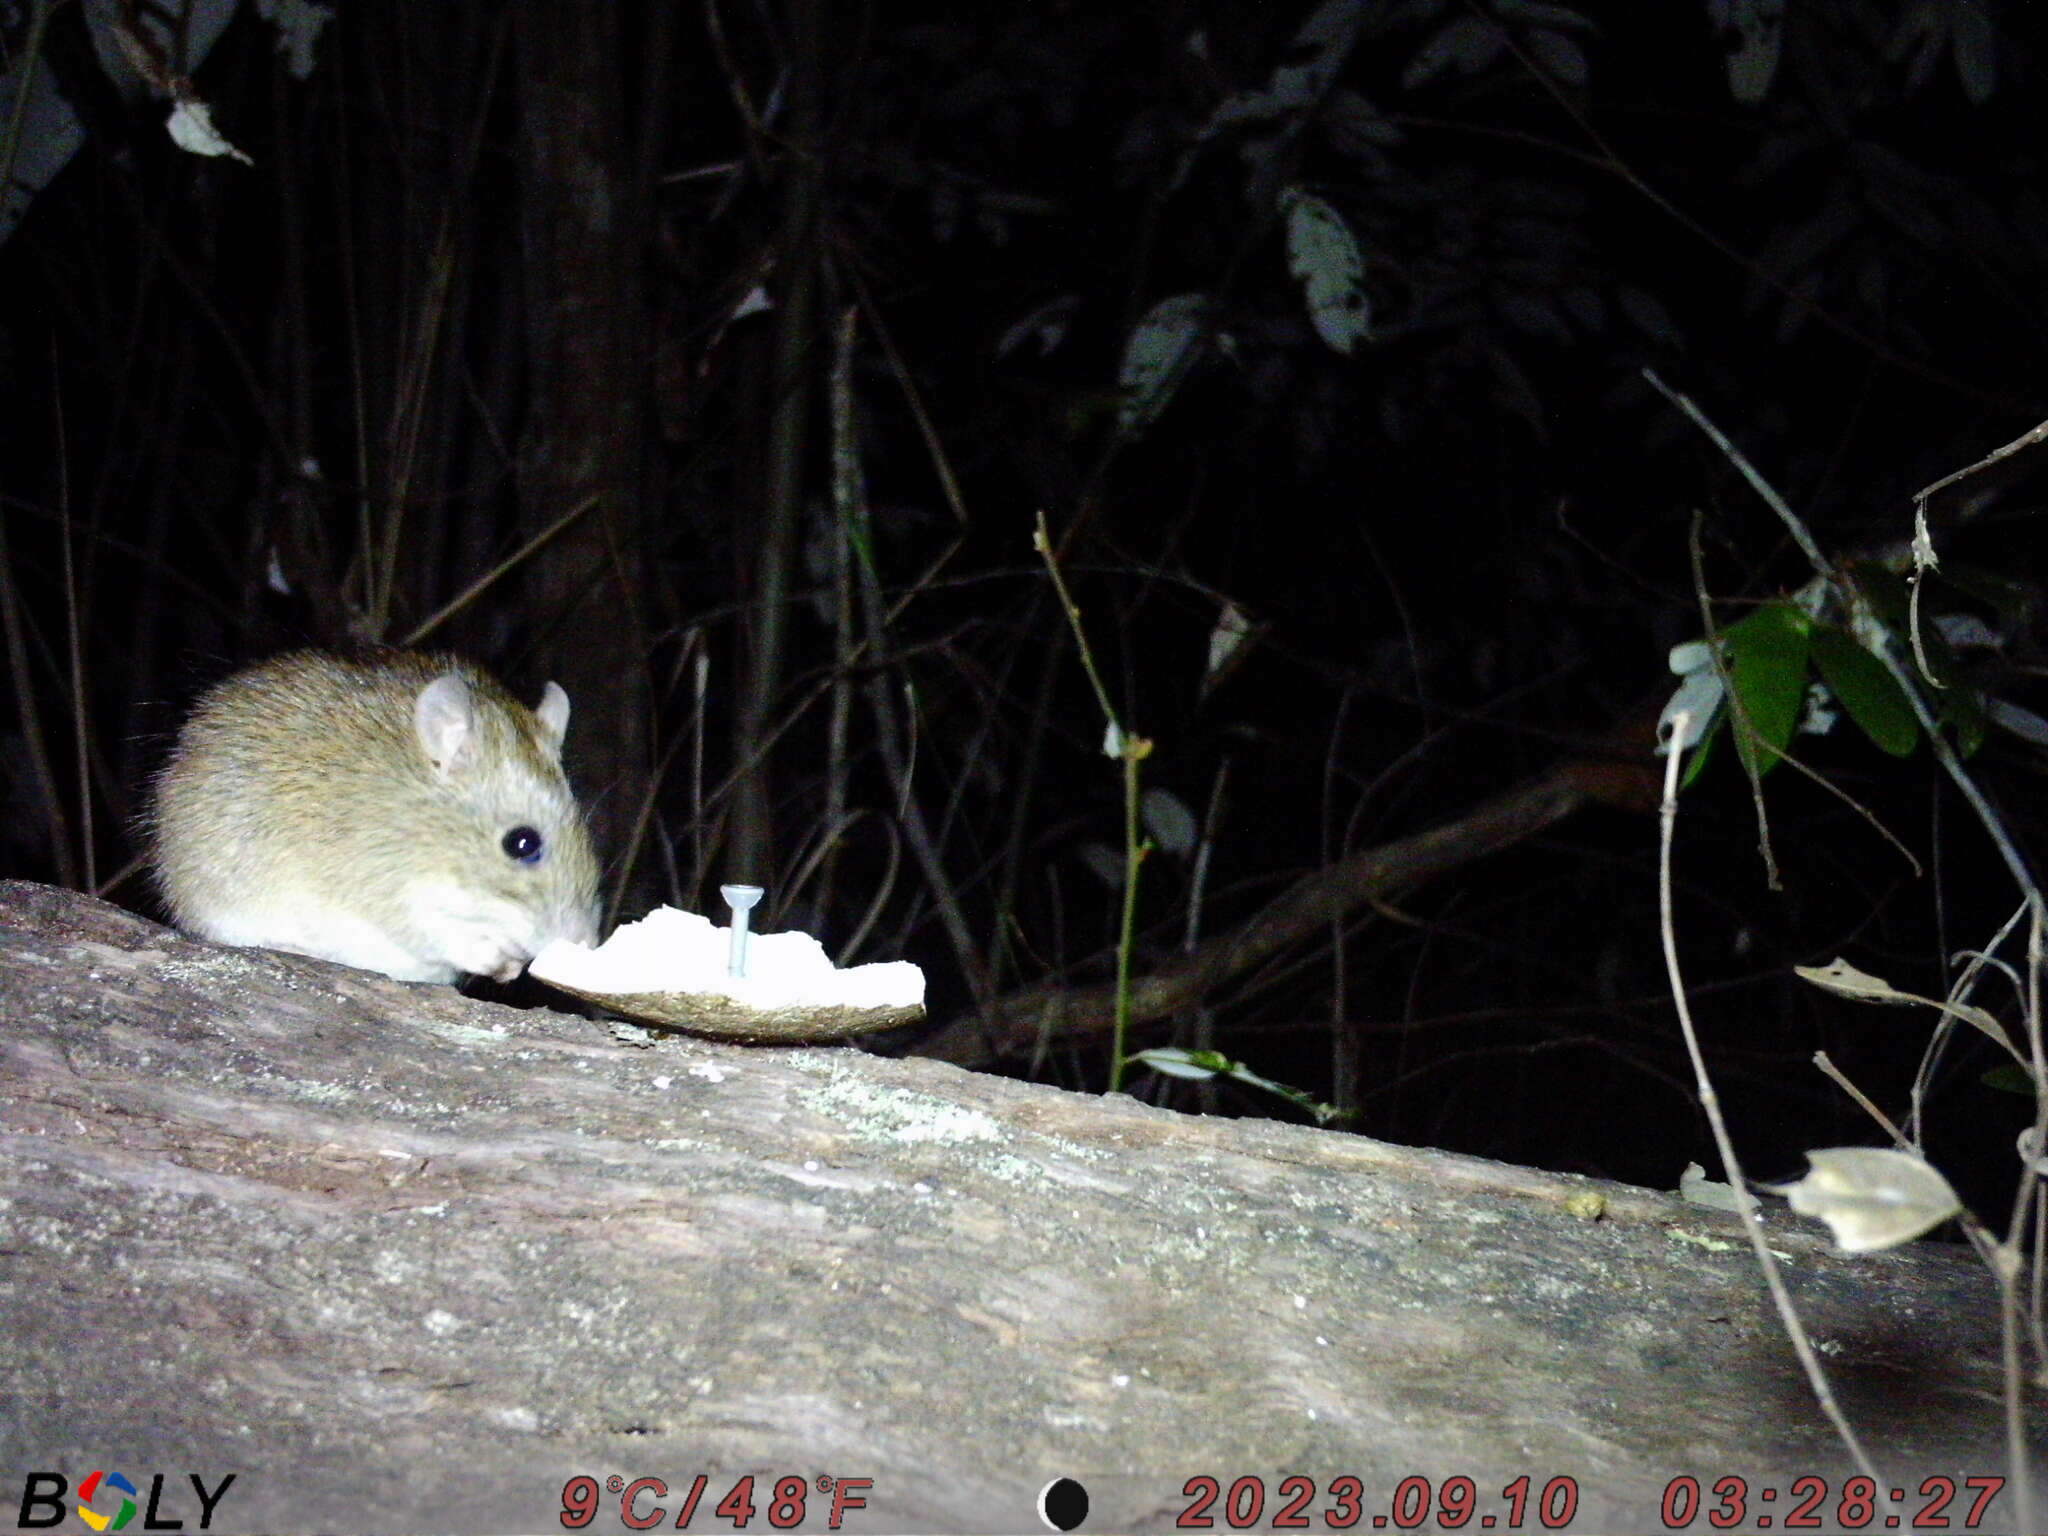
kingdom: Animalia
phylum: Chordata
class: Mammalia
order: Rodentia
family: Muridae
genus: Rattus
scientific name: Rattus tunneyi
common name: Australian pale field rat
